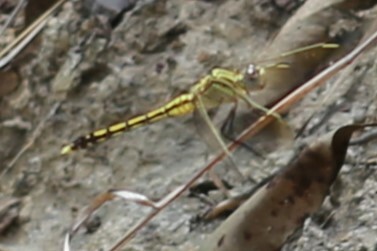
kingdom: Animalia
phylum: Arthropoda
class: Insecta
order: Odonata
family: Libellulidae
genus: Orthetrum
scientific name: Orthetrum caledonicum
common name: Blue skimmer
